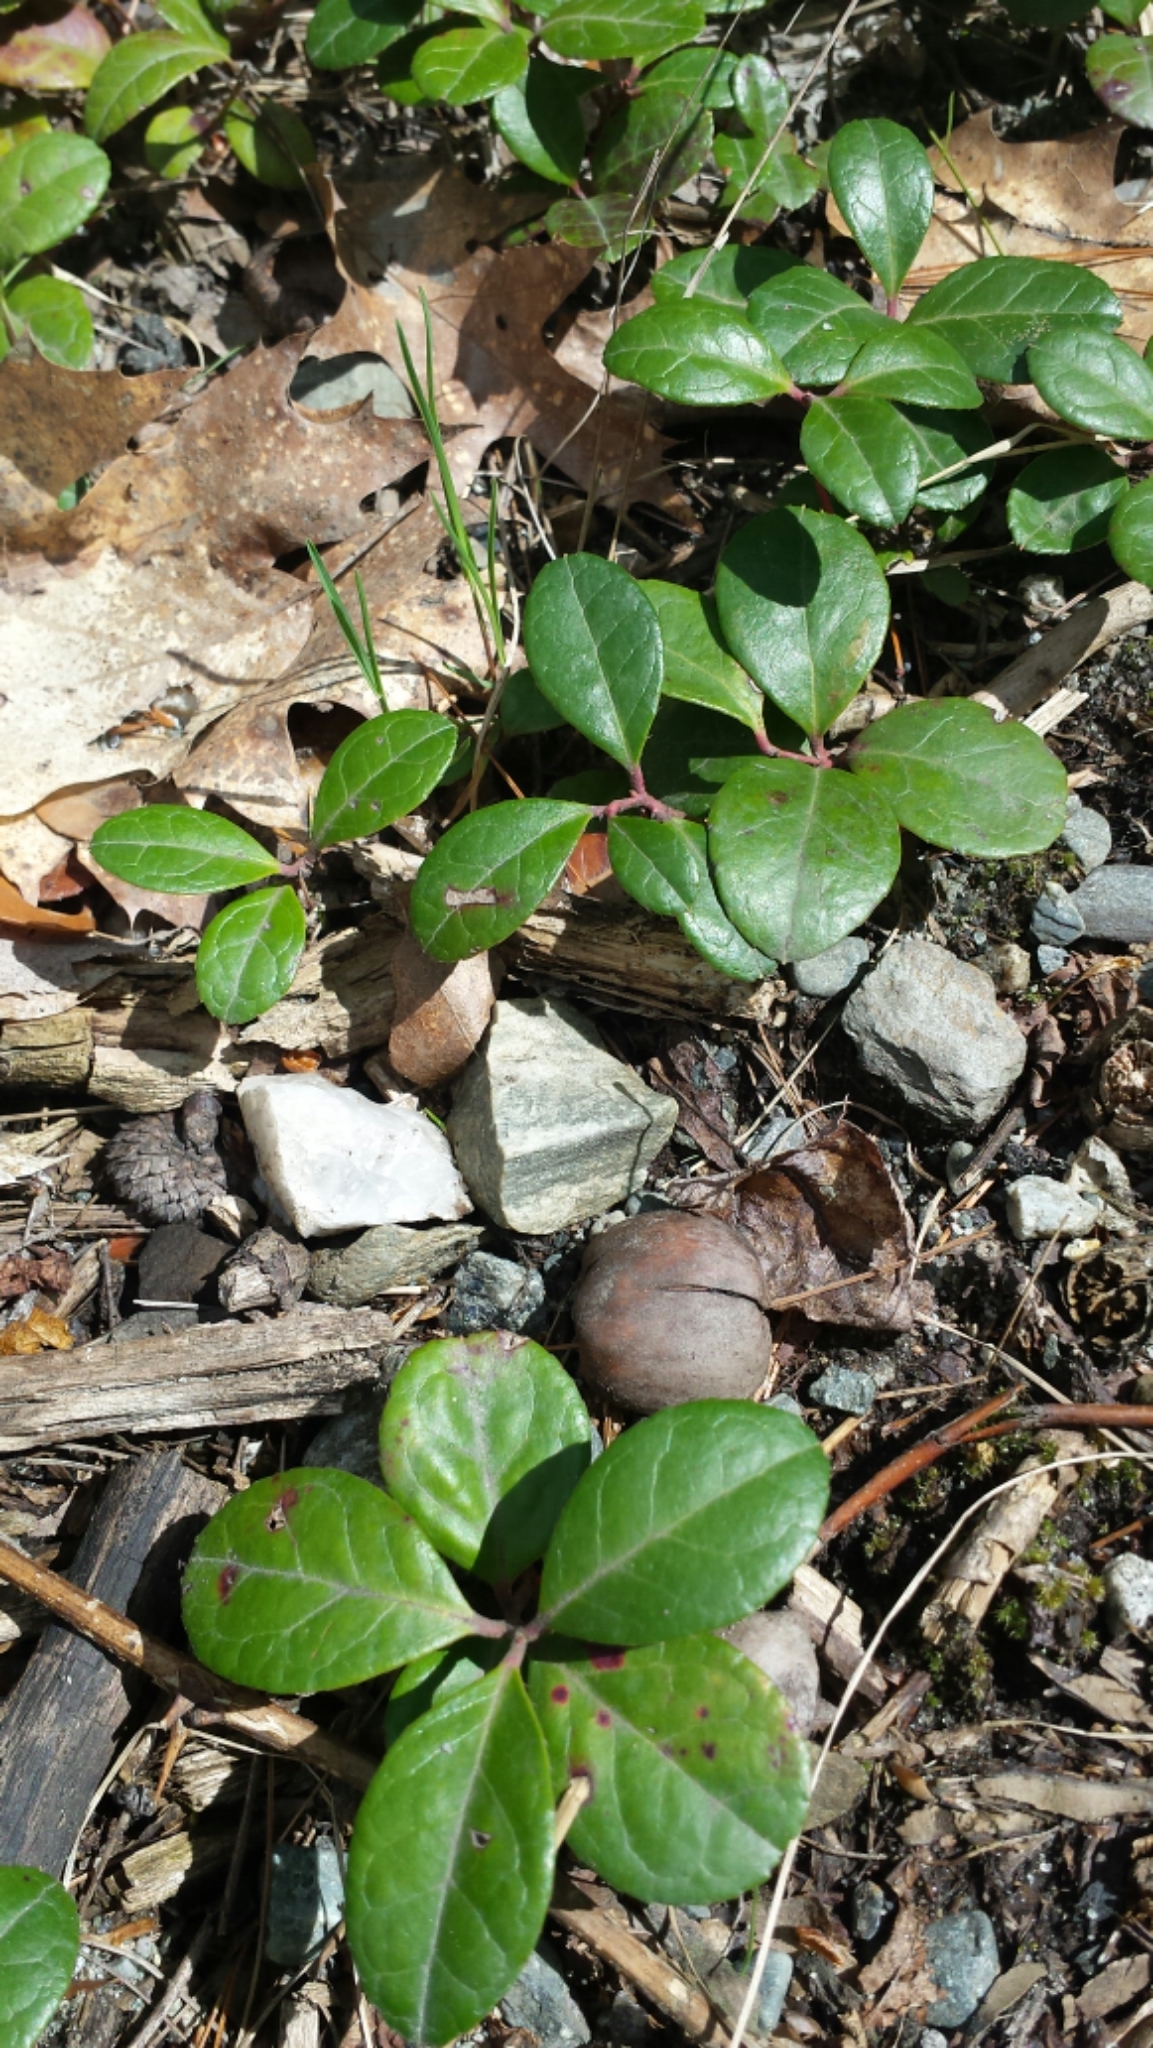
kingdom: Plantae
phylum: Tracheophyta
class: Magnoliopsida
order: Ericales
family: Ericaceae
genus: Gaultheria
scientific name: Gaultheria procumbens
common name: Checkerberry
